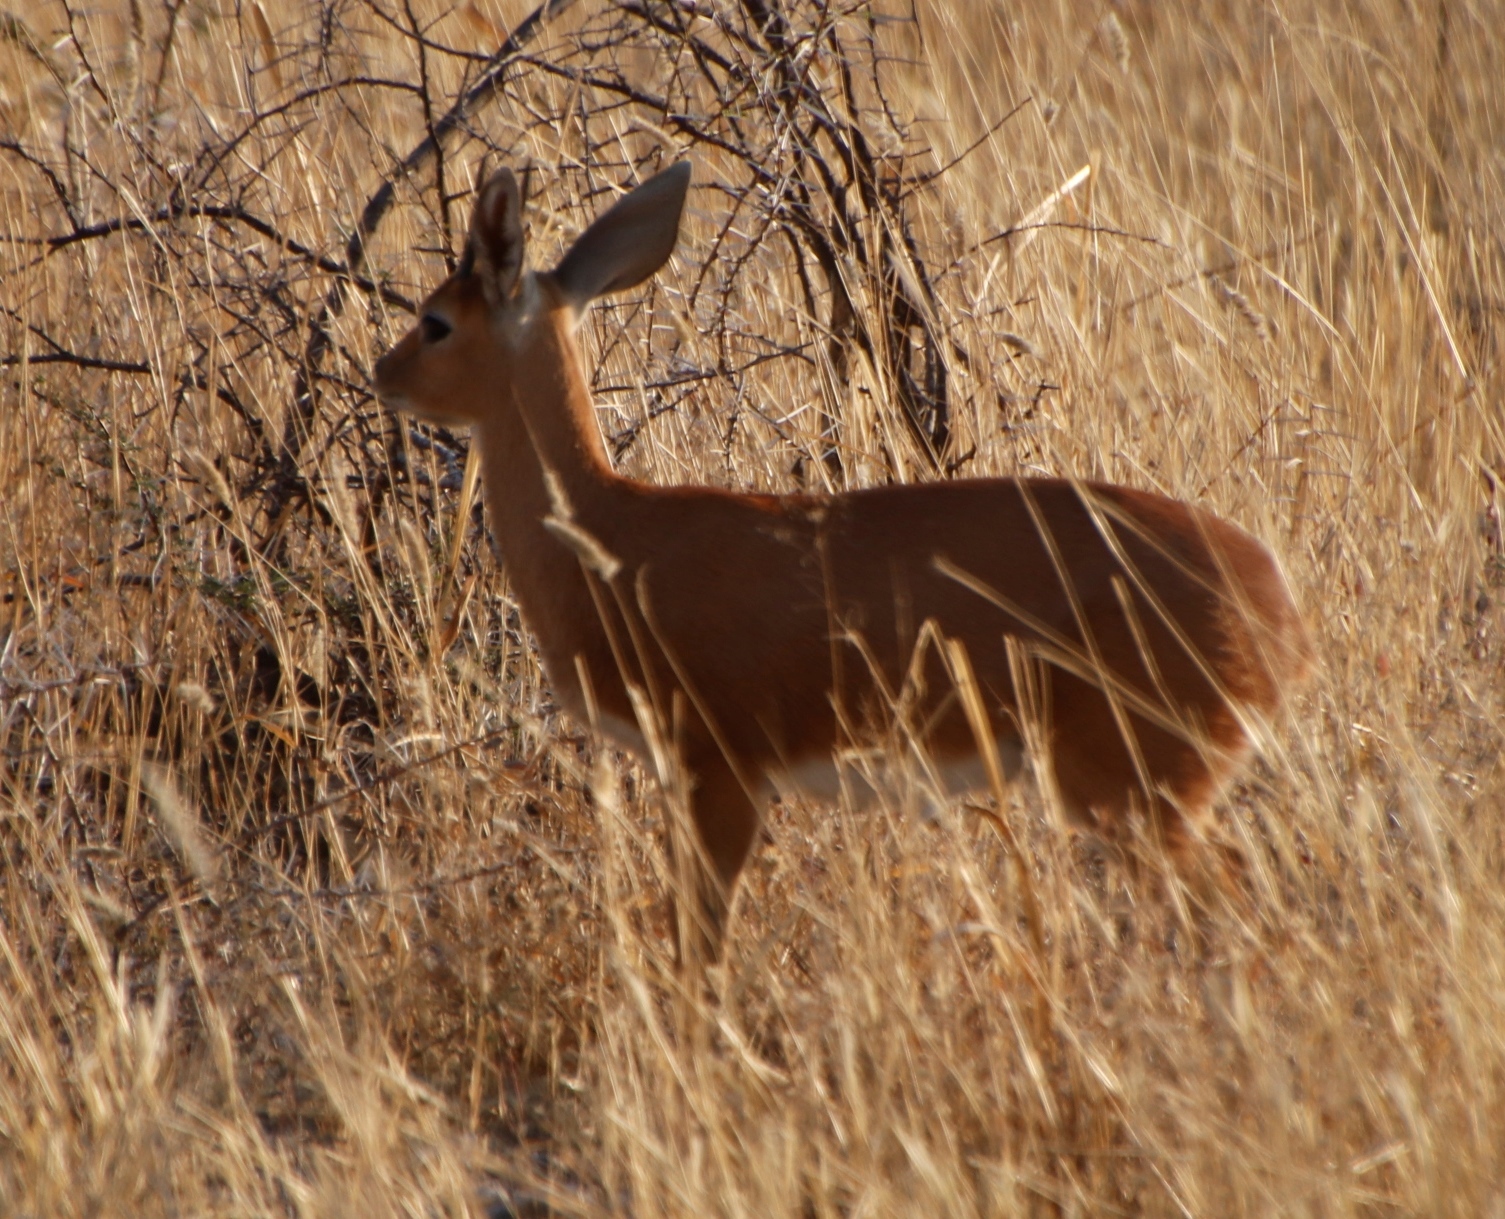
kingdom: Animalia
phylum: Chordata
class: Mammalia
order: Artiodactyla
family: Bovidae
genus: Raphicerus
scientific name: Raphicerus campestris
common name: Steenbok
